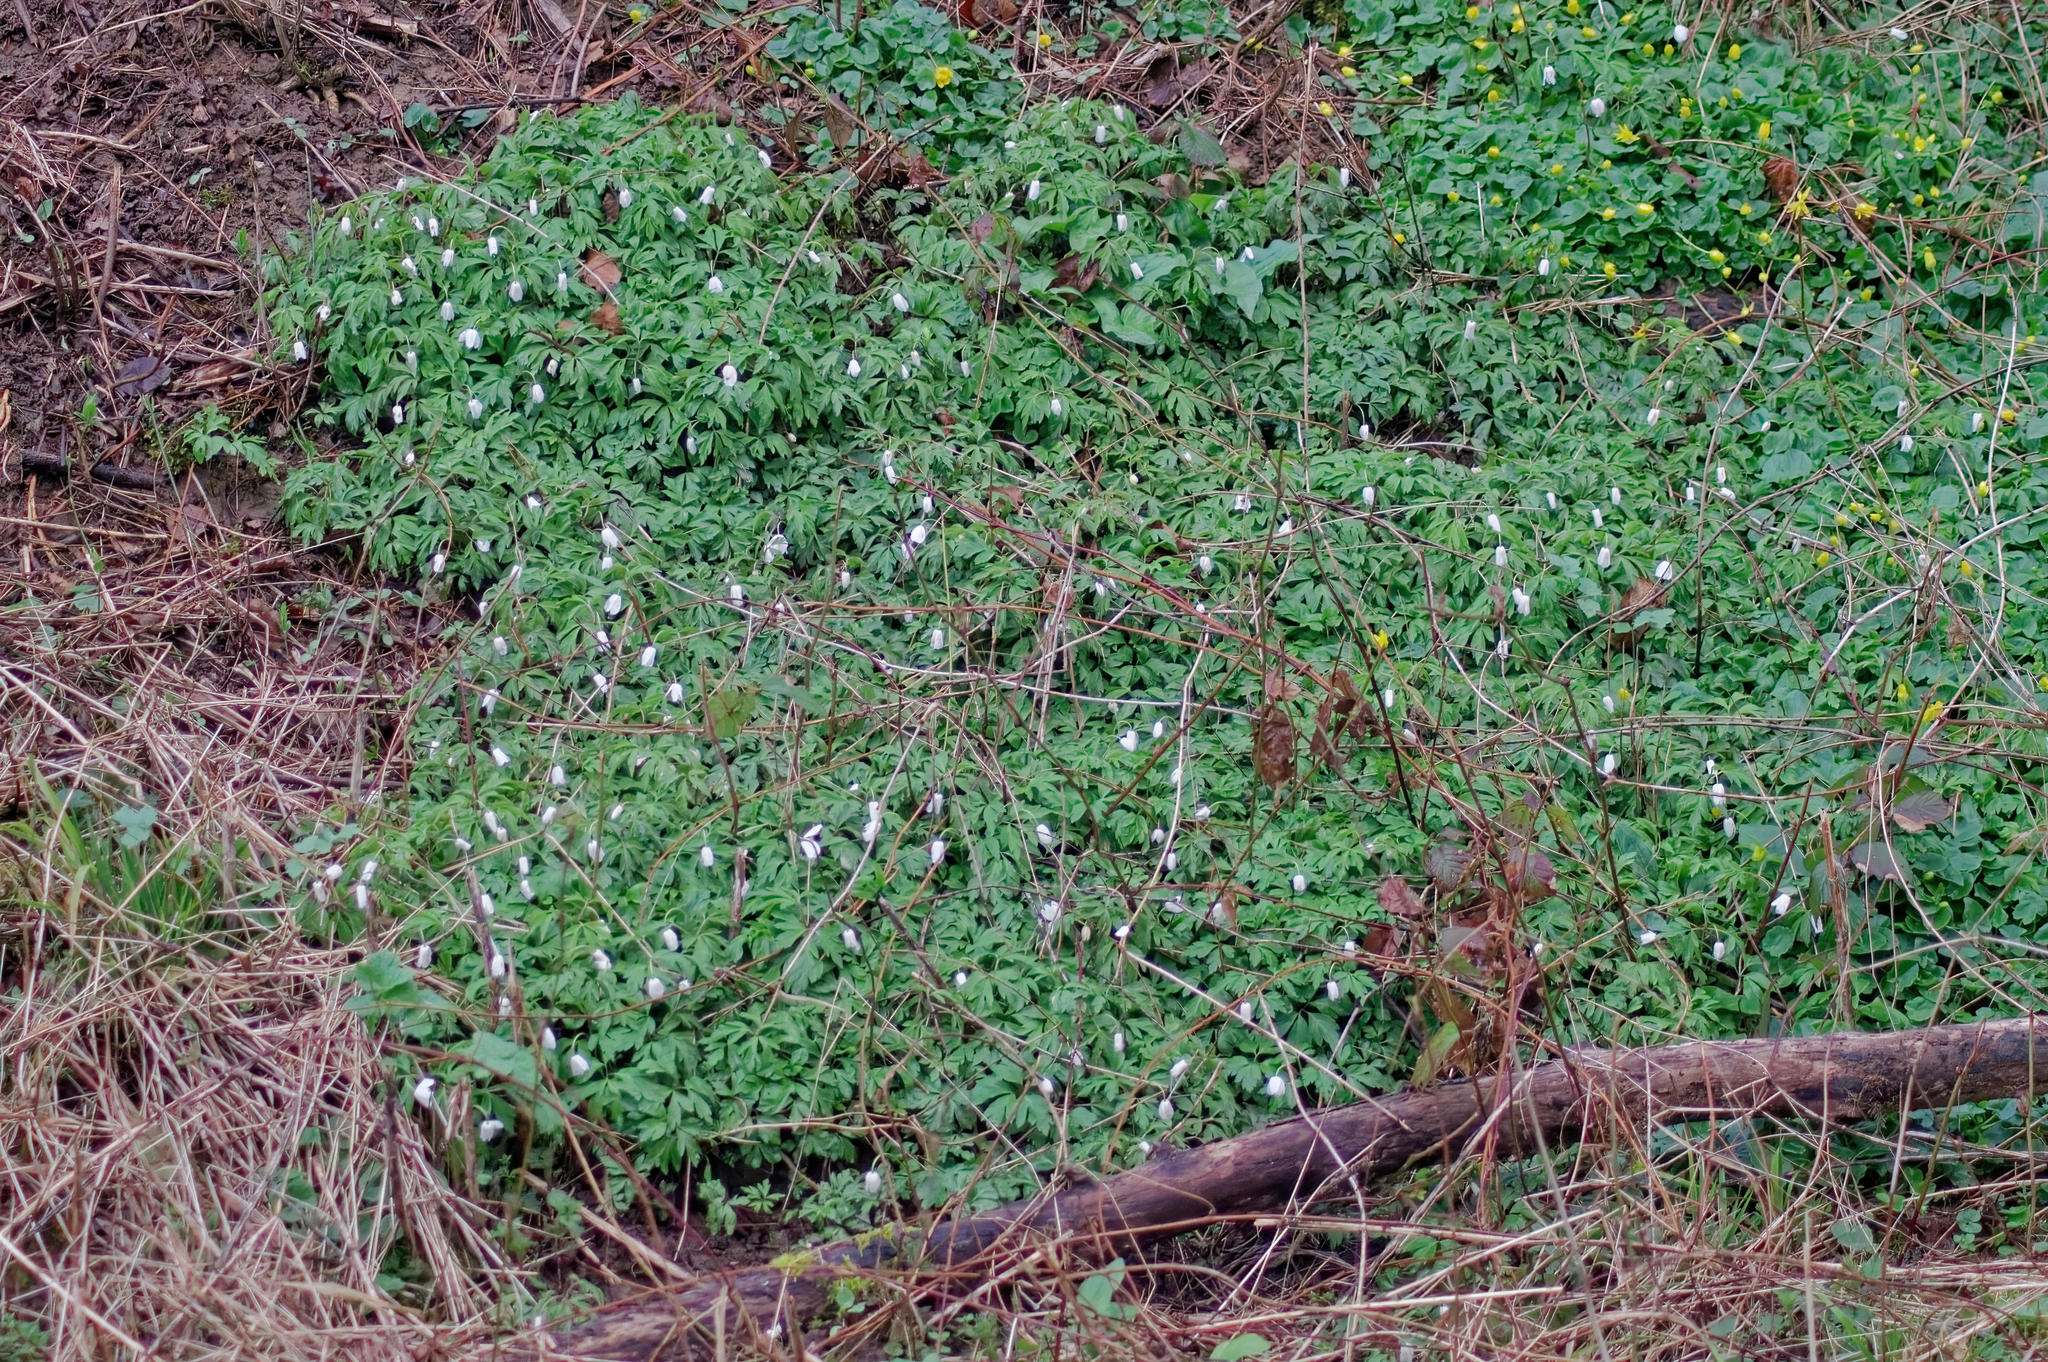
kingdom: Plantae
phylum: Tracheophyta
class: Magnoliopsida
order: Ranunculales
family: Ranunculaceae
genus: Anemone
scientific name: Anemone nemorosa
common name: Wood anemone
